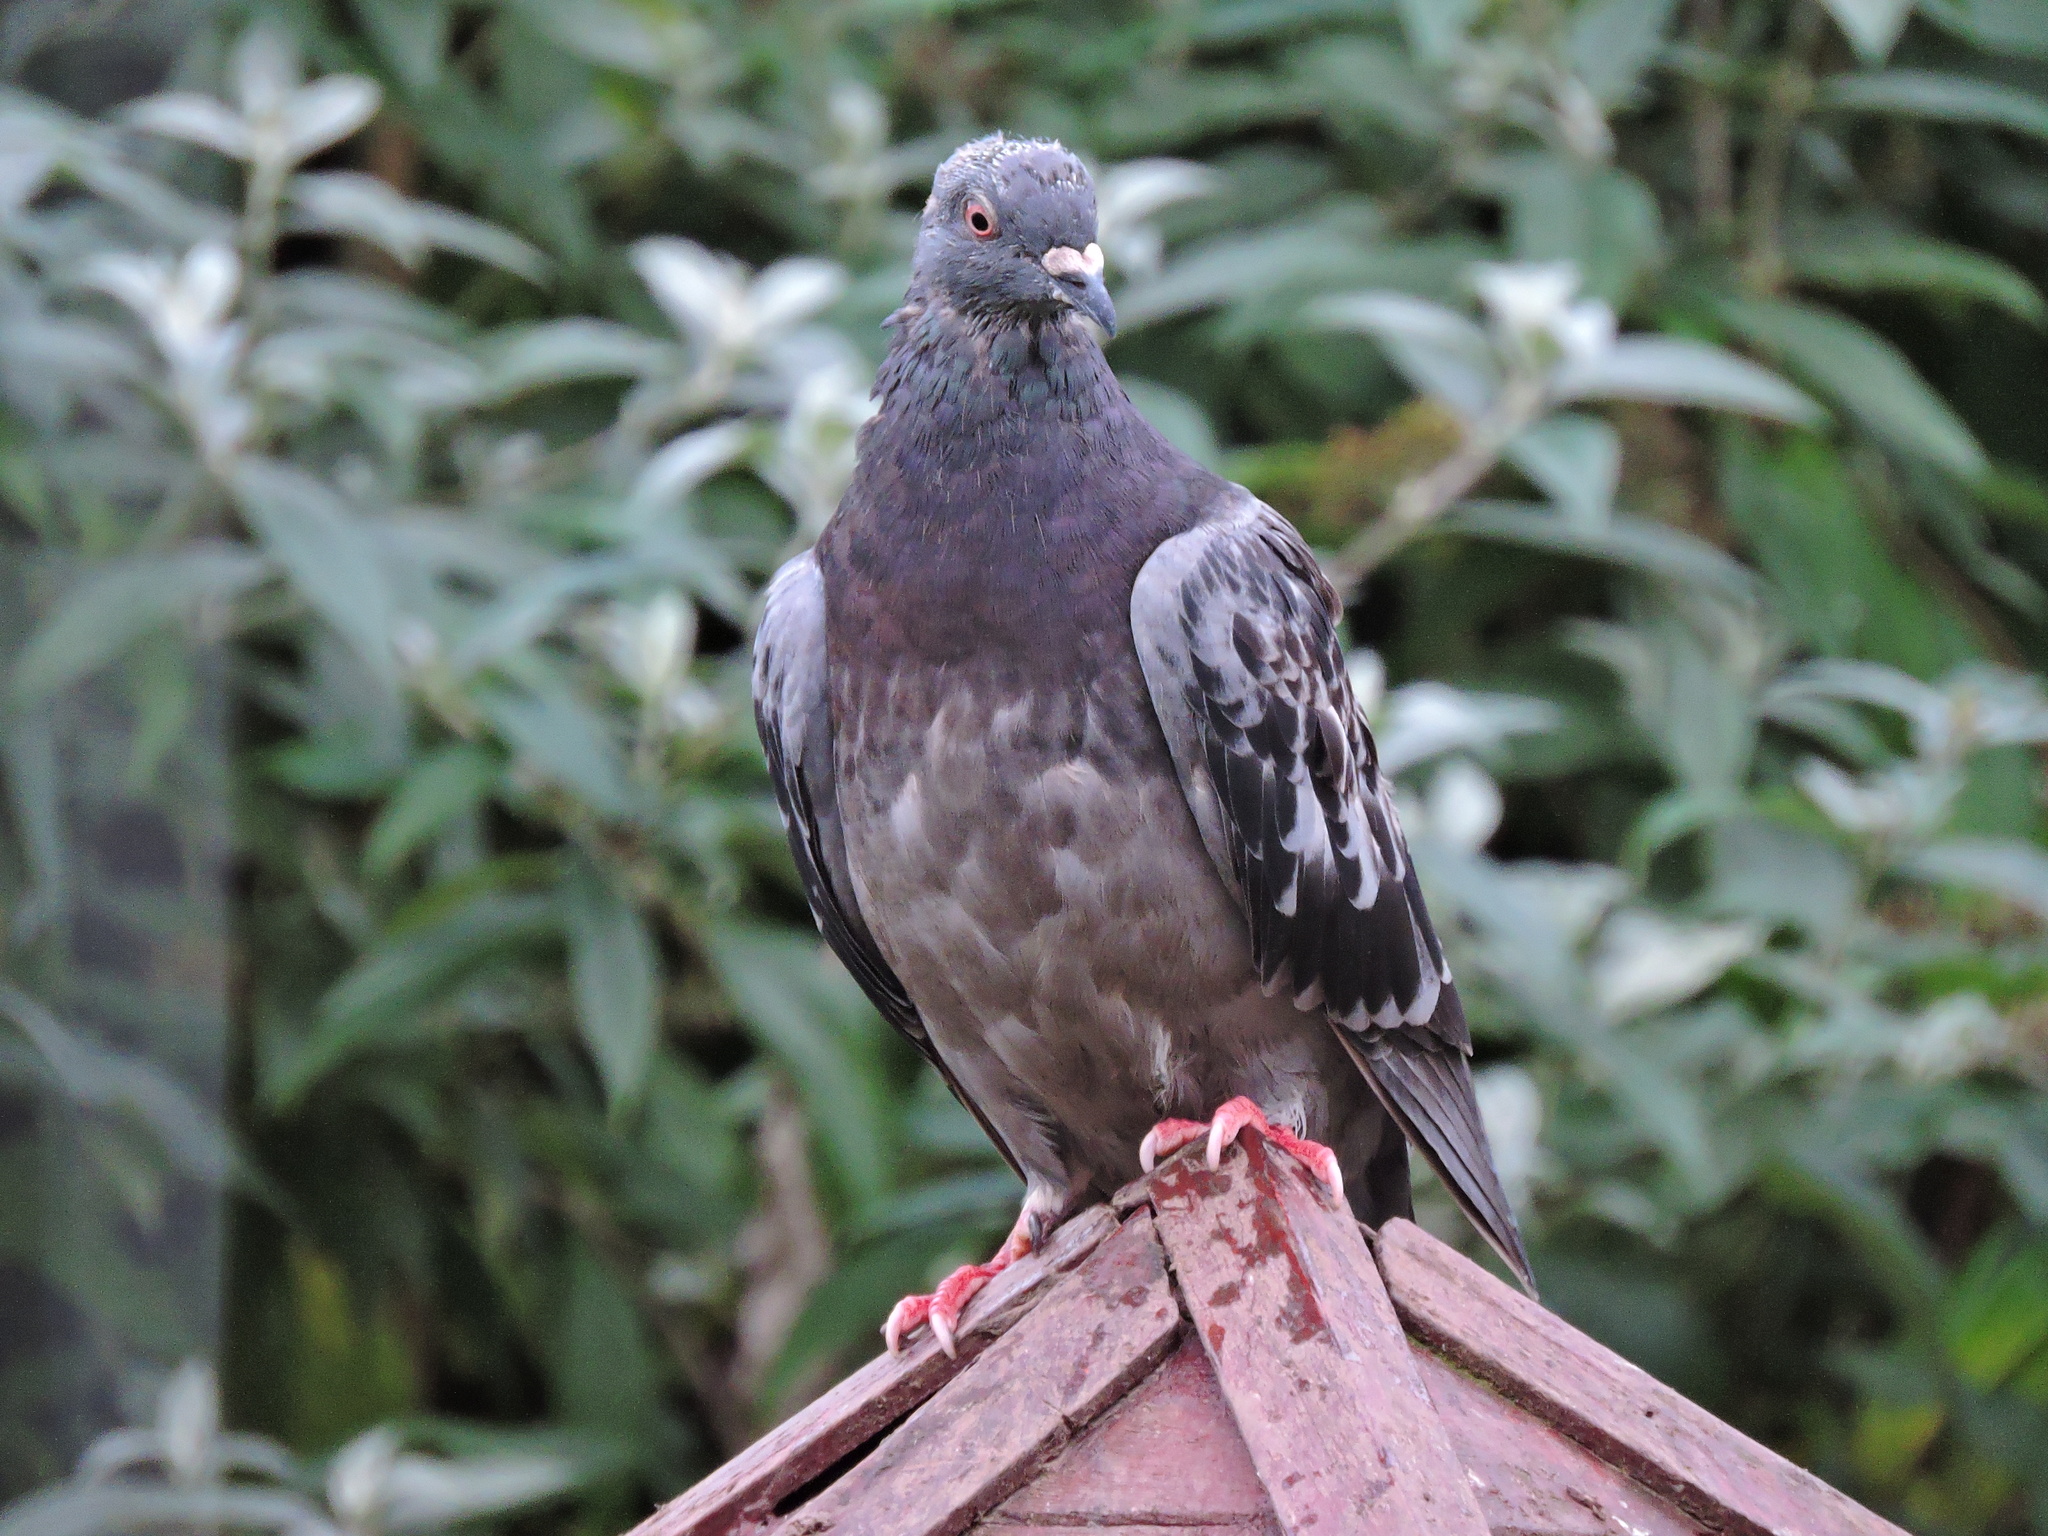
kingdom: Animalia
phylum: Chordata
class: Aves
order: Columbiformes
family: Columbidae
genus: Columba
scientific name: Columba livia
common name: Rock pigeon
